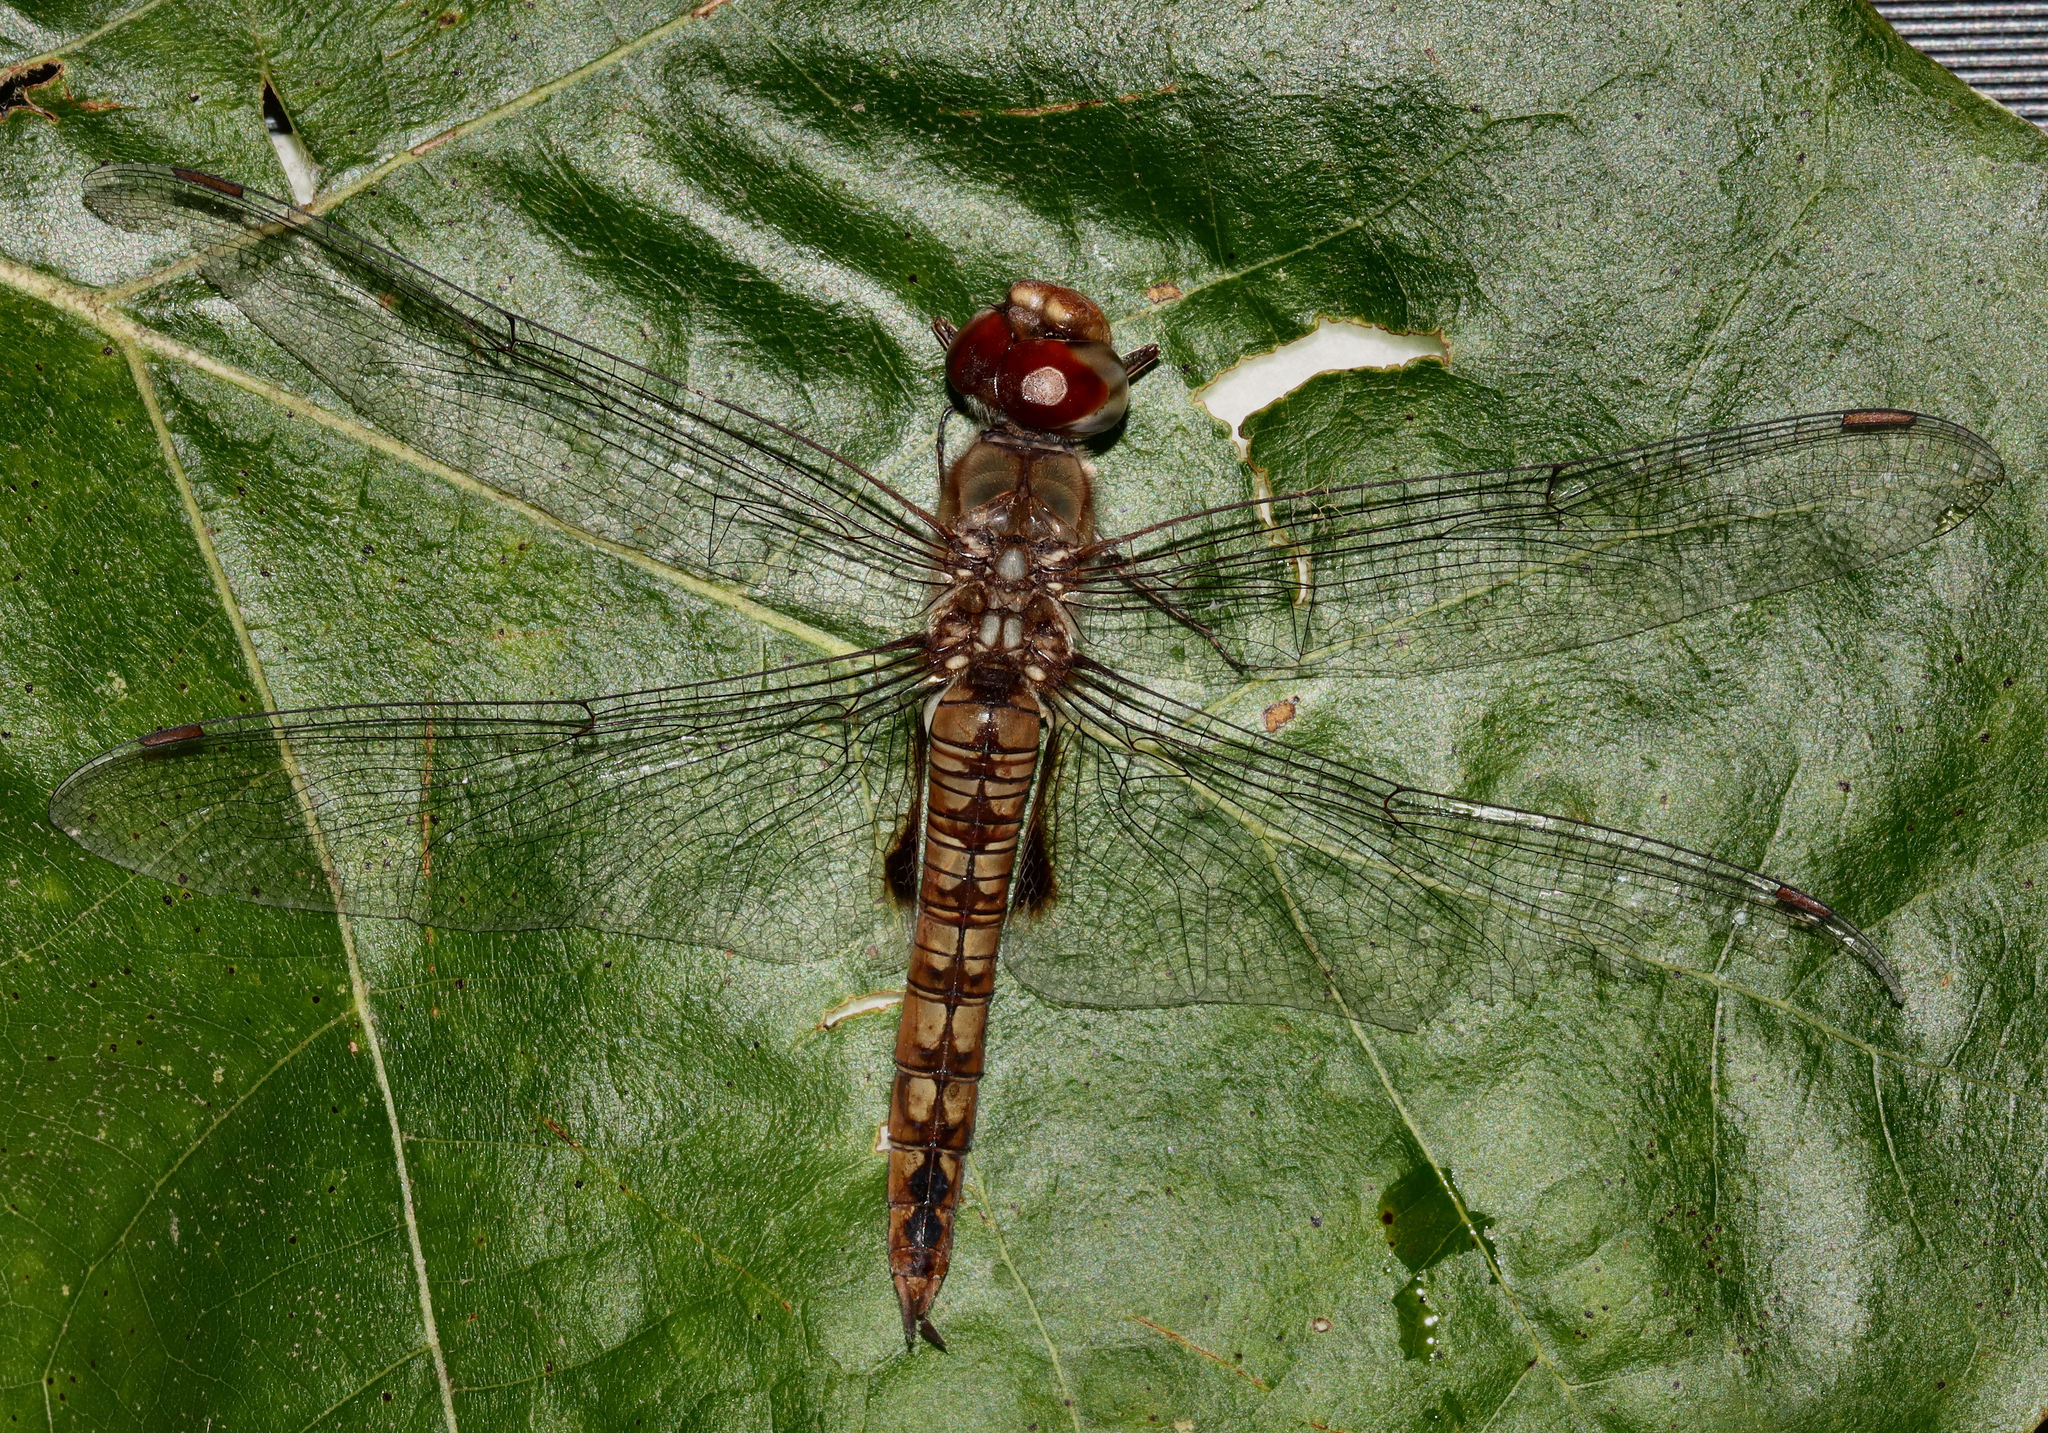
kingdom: Animalia
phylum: Arthropoda
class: Insecta
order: Odonata
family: Libellulidae
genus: Pantala
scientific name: Pantala hymenaea
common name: Spot-winged glider
